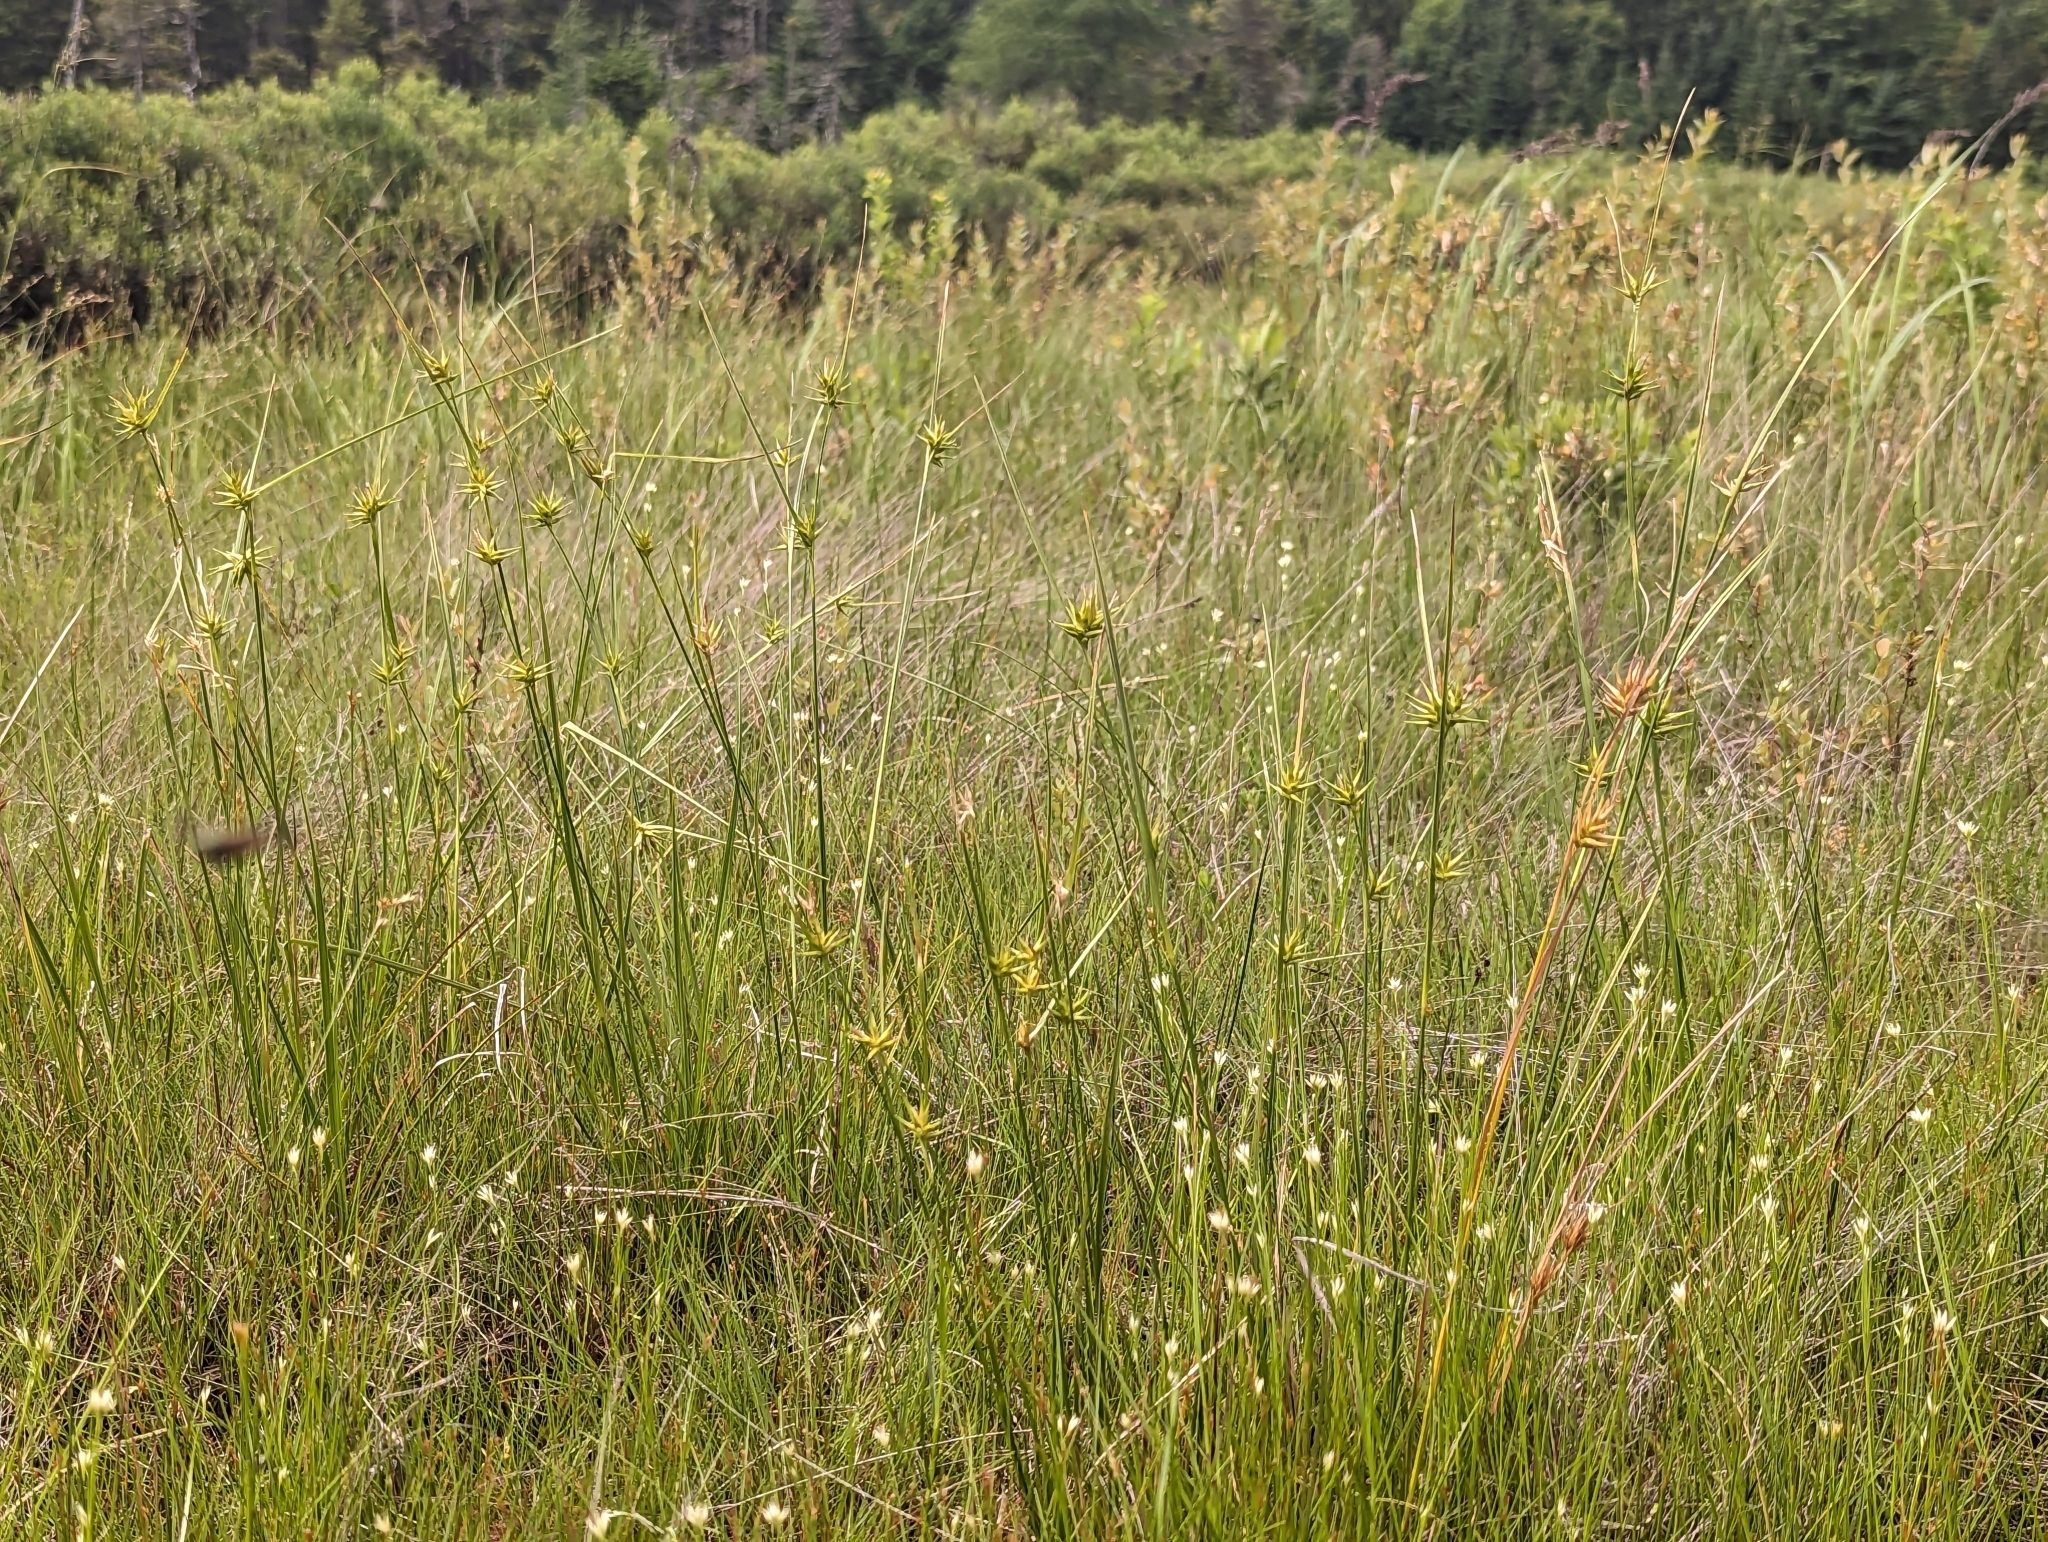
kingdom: Plantae
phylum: Tracheophyta
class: Liliopsida
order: Poales
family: Cyperaceae
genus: Carex
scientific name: Carex michauxiana
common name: Michaux's sedge
